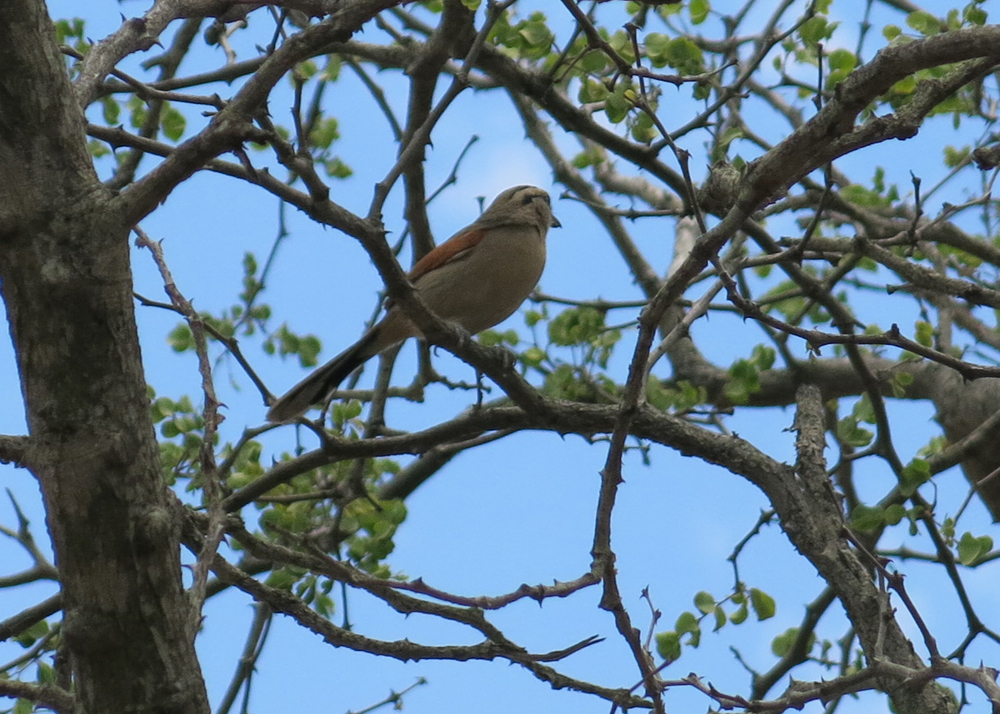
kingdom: Animalia
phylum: Chordata
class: Aves
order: Passeriformes
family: Malaconotidae
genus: Tchagra
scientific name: Tchagra australis
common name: Brown-crowned tchagra
